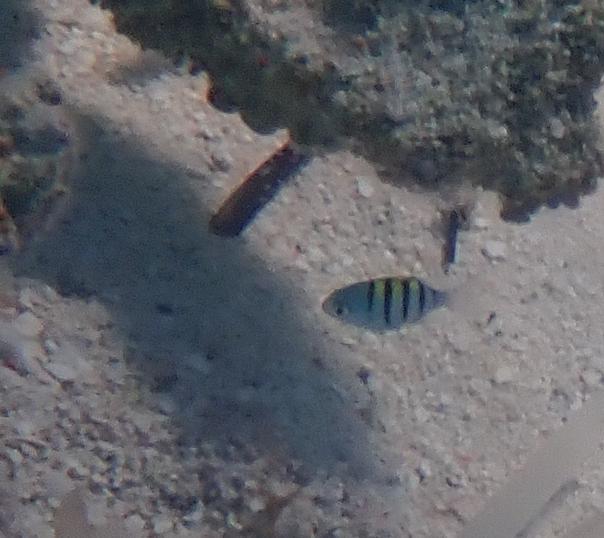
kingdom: Animalia
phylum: Chordata
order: Perciformes
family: Pomacentridae
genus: Abudefduf
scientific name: Abudefduf saxatilis
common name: Sergeant major
